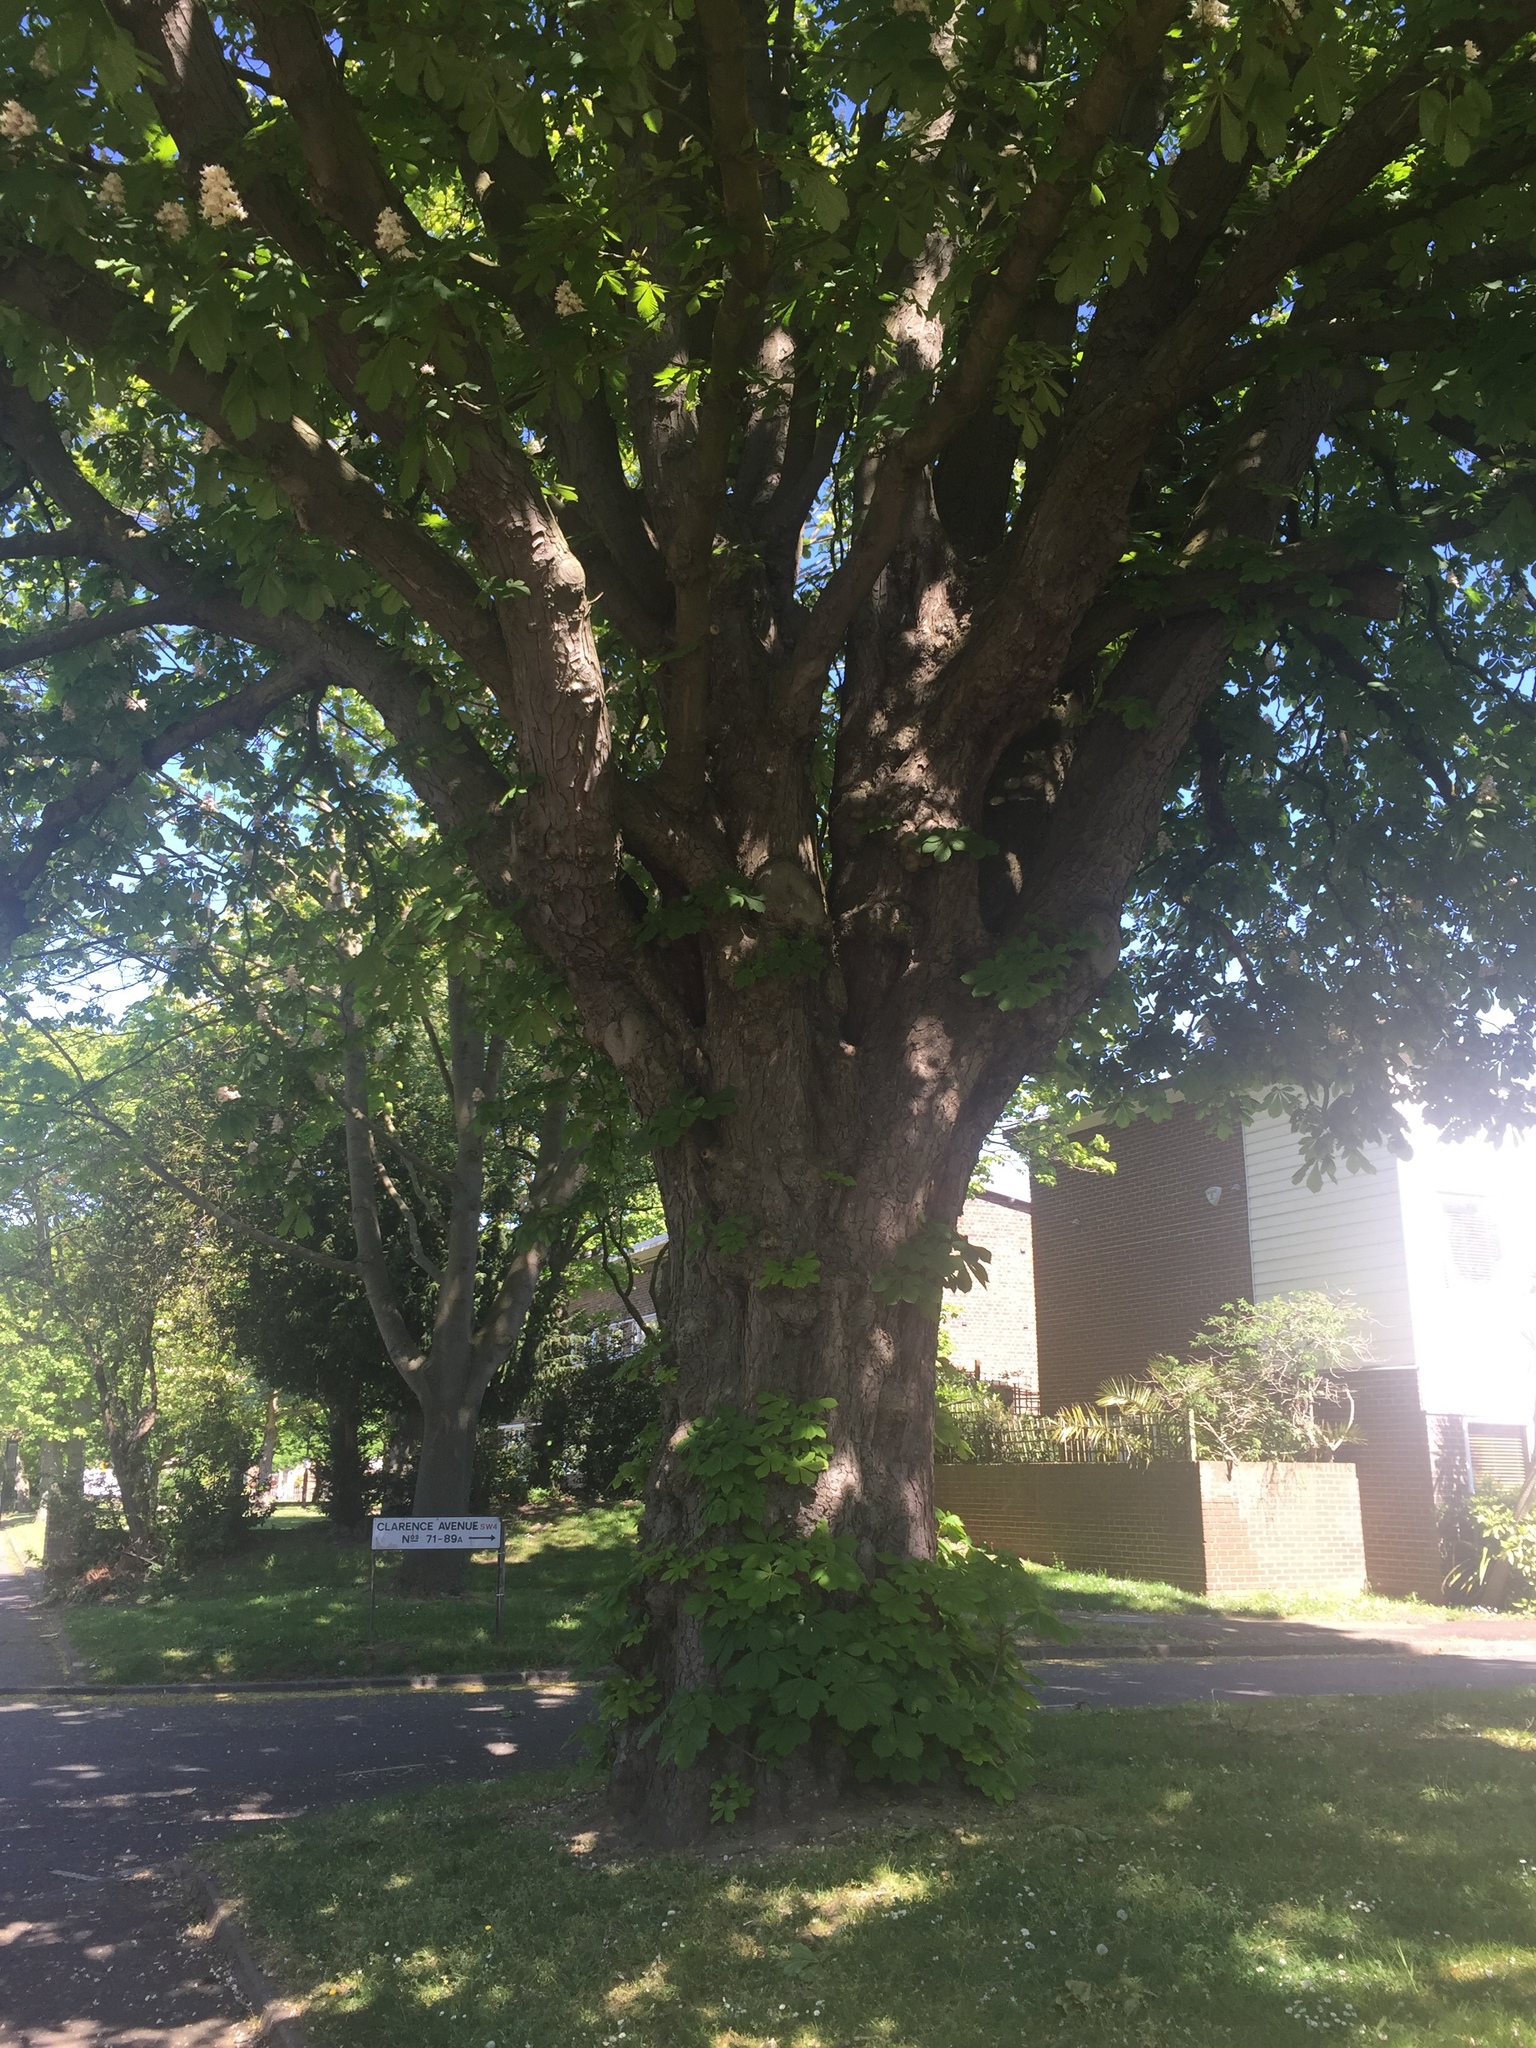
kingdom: Plantae
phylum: Tracheophyta
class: Magnoliopsida
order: Sapindales
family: Sapindaceae
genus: Aesculus
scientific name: Aesculus hippocastanum
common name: Horse-chestnut
